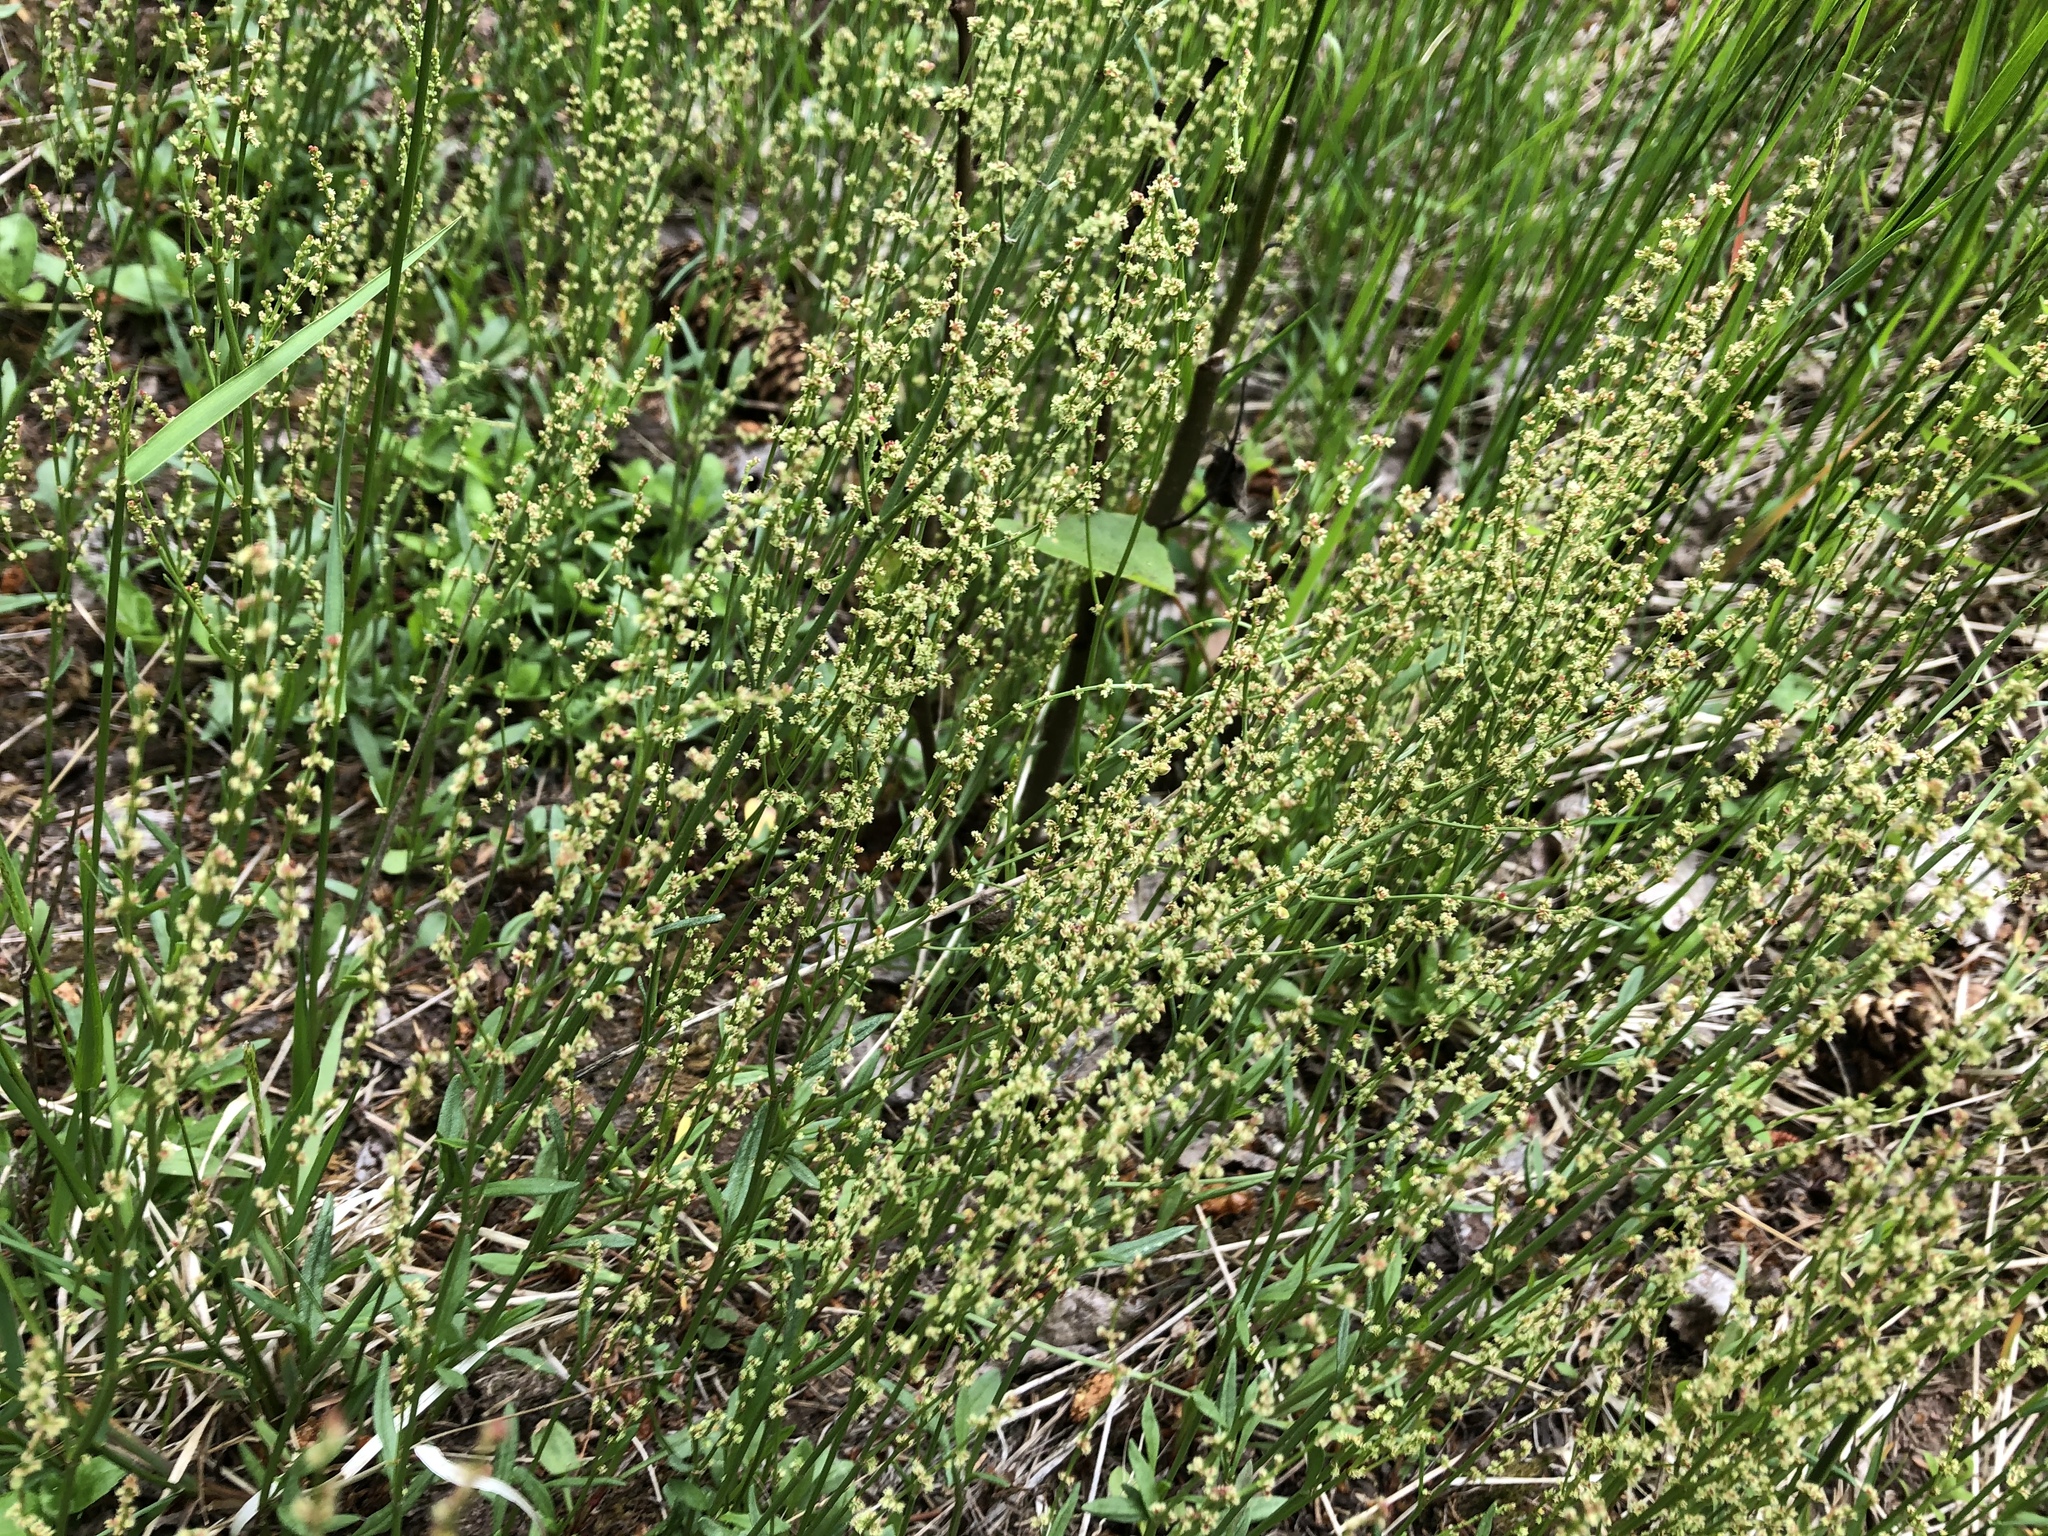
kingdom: Plantae
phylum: Tracheophyta
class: Magnoliopsida
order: Caryophyllales
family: Polygonaceae
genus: Rumex
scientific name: Rumex acetosella
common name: Common sheep sorrel
